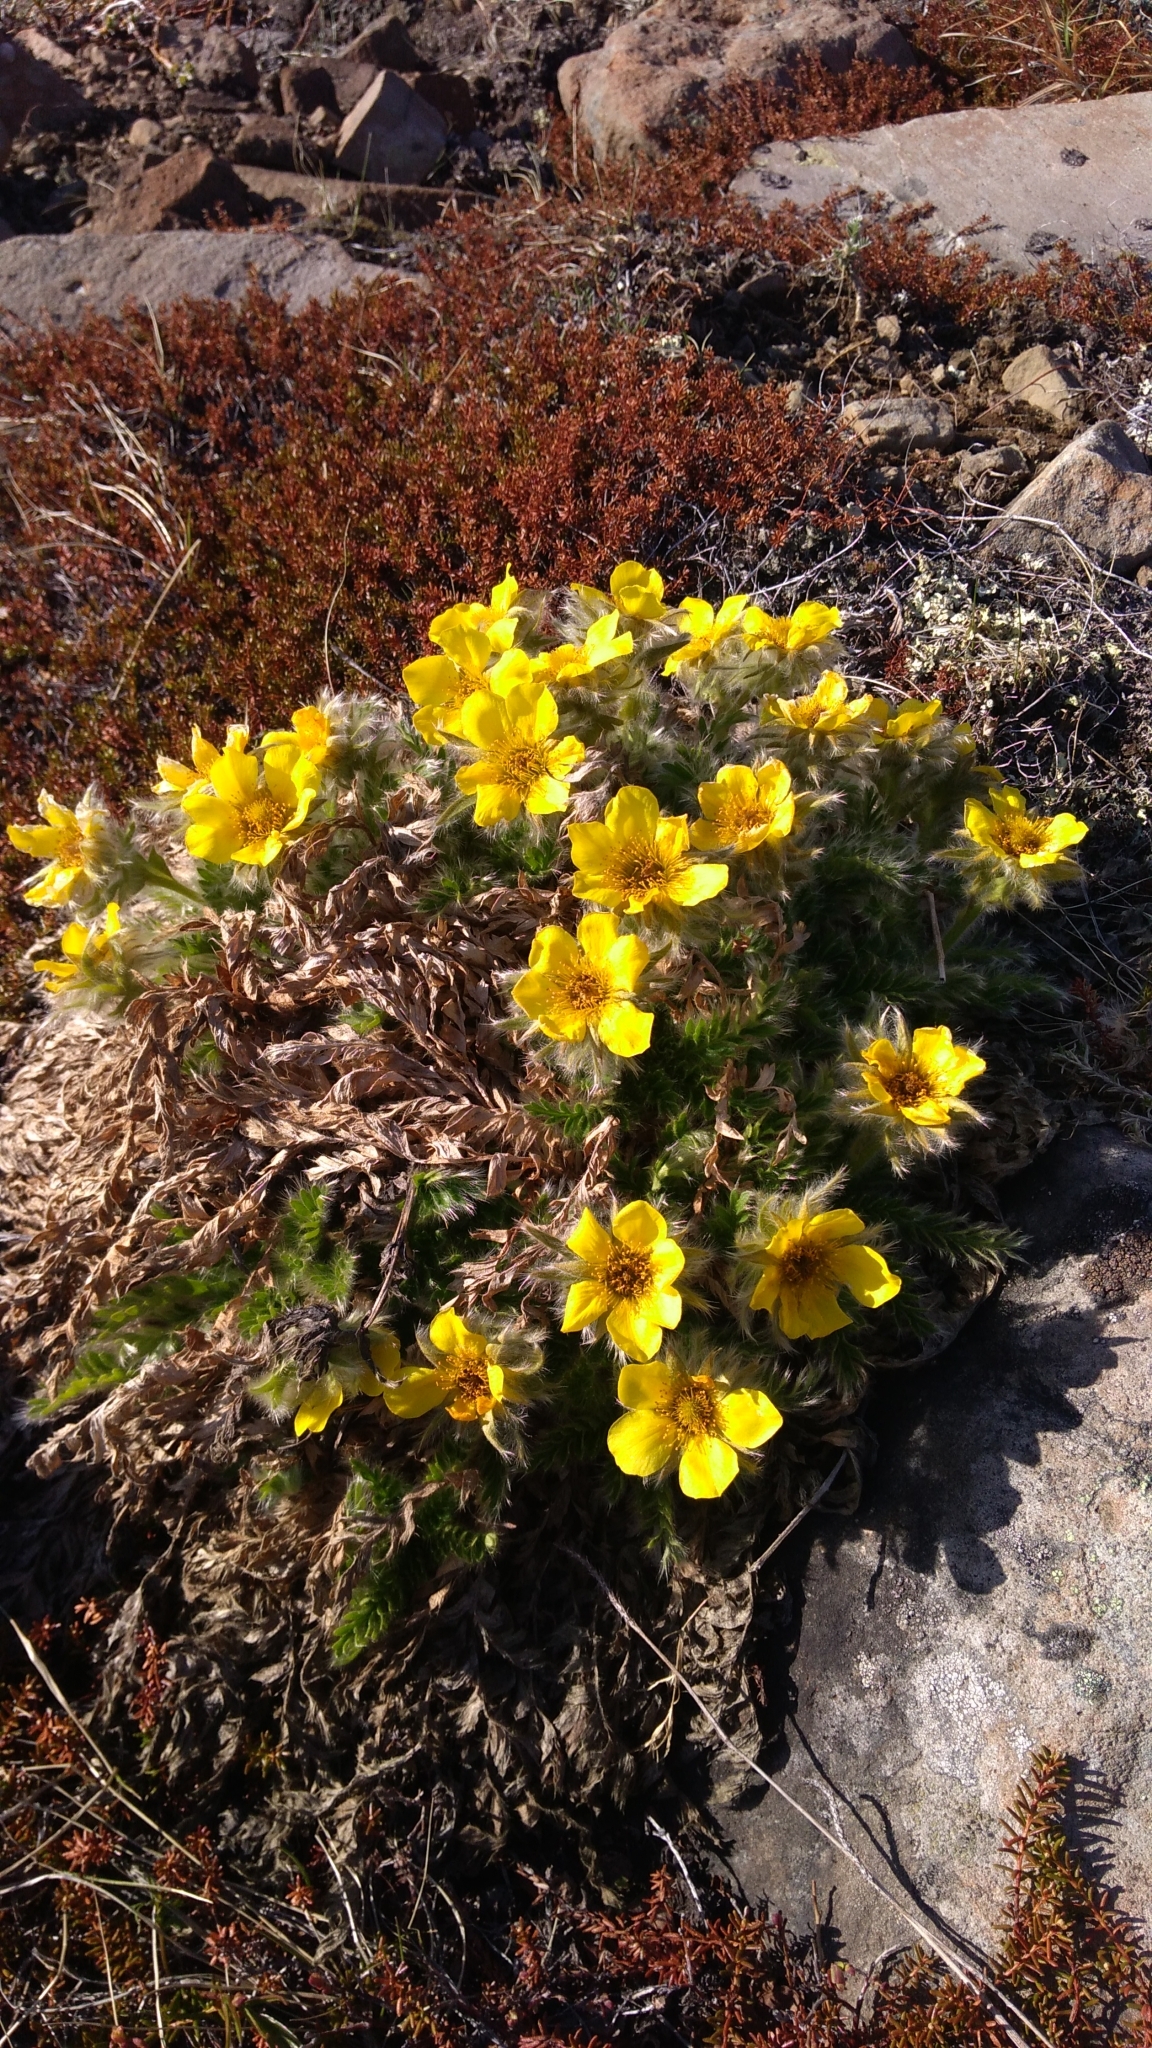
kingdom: Plantae
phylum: Tracheophyta
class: Magnoliopsida
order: Rosales
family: Rosaceae
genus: Geum
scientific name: Geum glaciale
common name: Glacier avens
